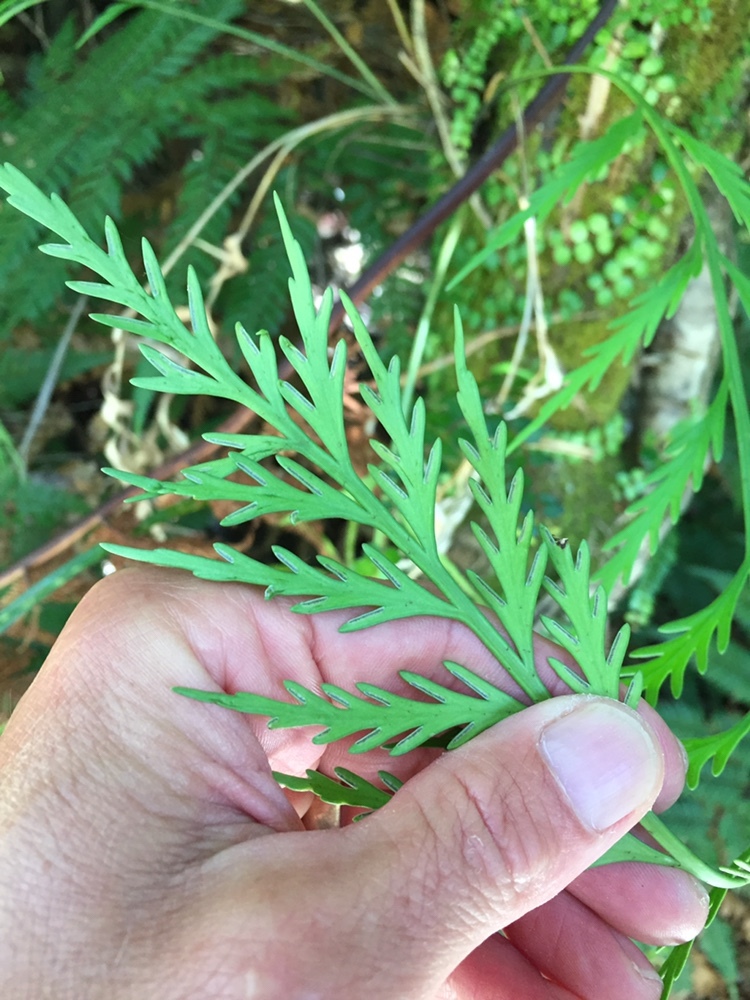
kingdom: Plantae
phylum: Tracheophyta
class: Polypodiopsida
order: Polypodiales
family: Aspleniaceae
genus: Asplenium
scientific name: Asplenium flaccidum
